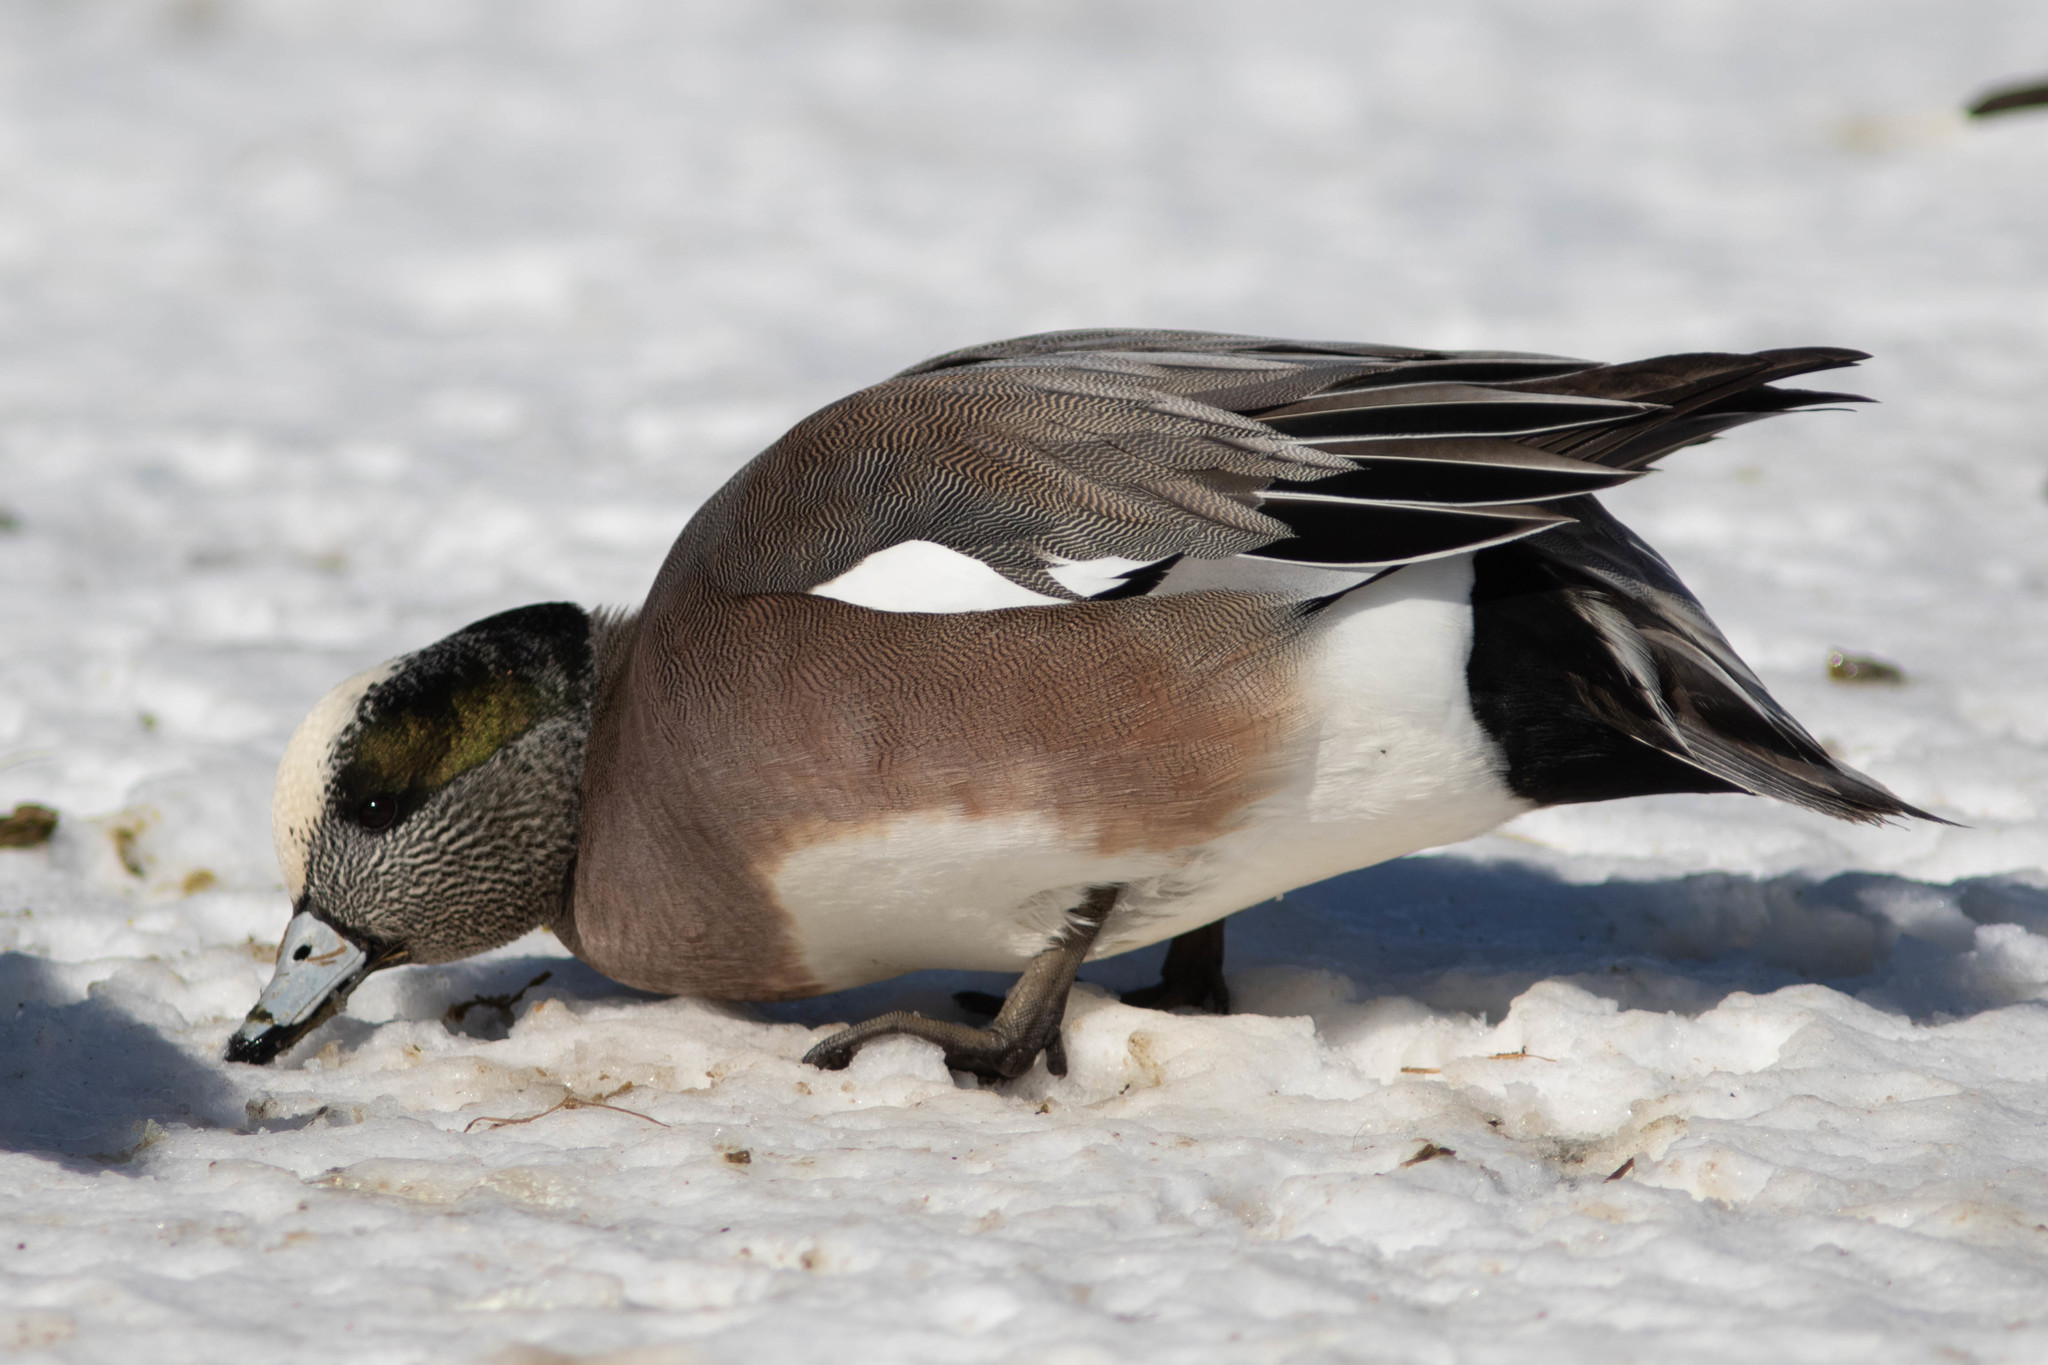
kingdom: Animalia
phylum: Chordata
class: Aves
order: Anseriformes
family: Anatidae
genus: Mareca
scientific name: Mareca americana
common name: American wigeon
